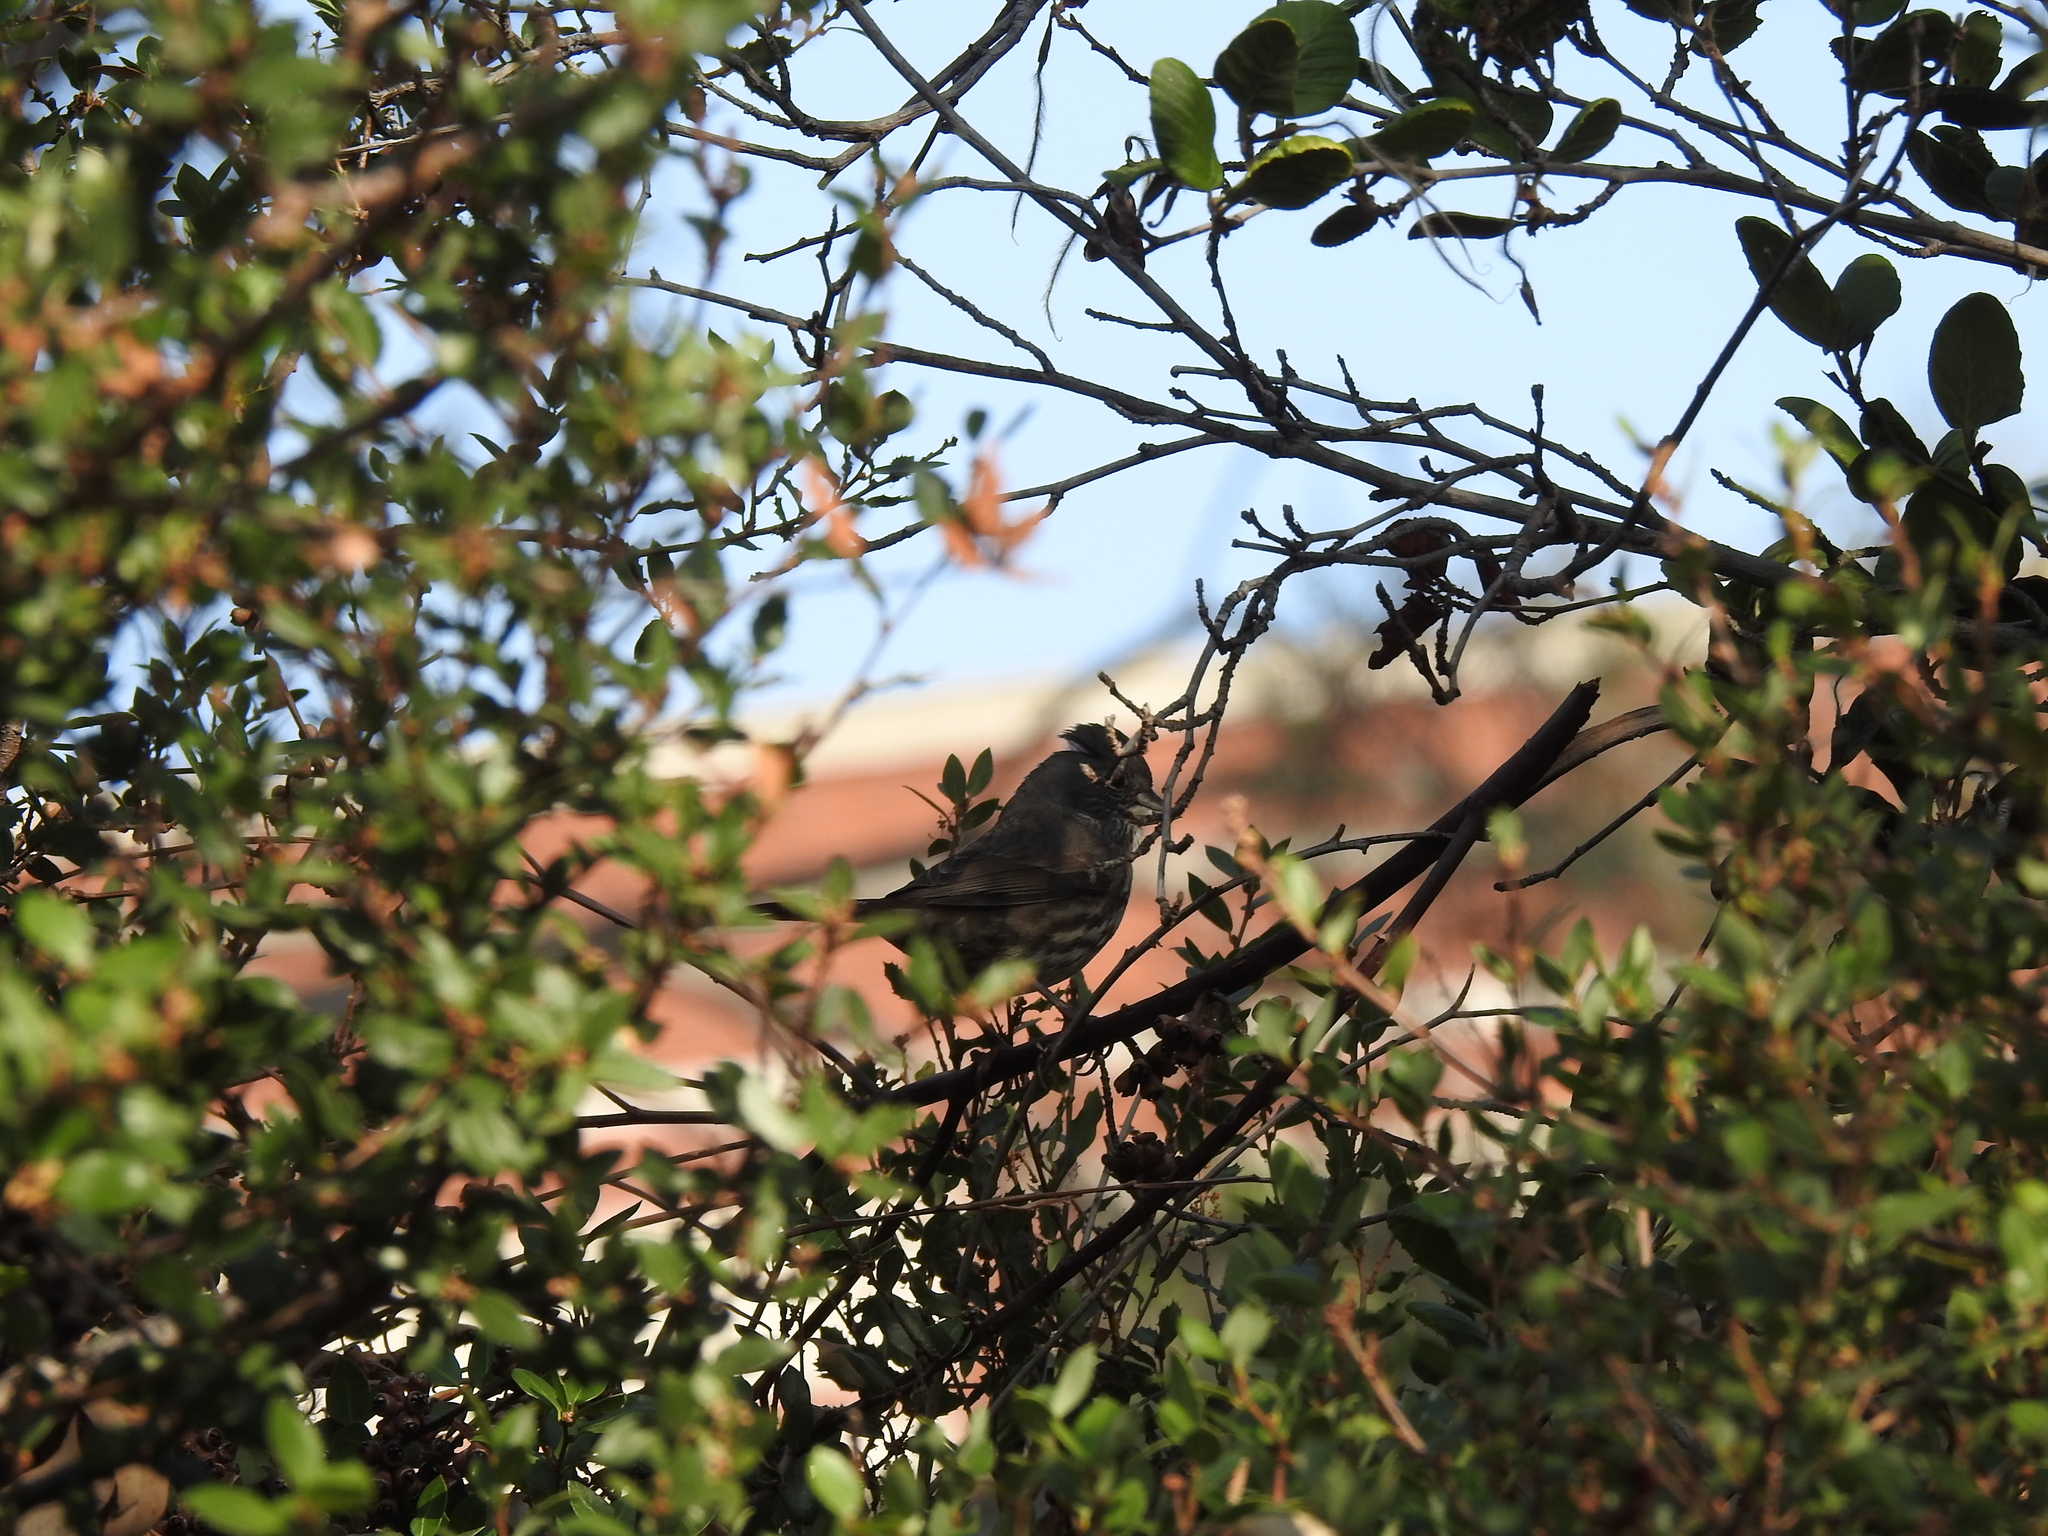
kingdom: Animalia
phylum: Chordata
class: Aves
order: Passeriformes
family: Passerellidae
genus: Passerella
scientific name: Passerella iliaca
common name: Fox sparrow
